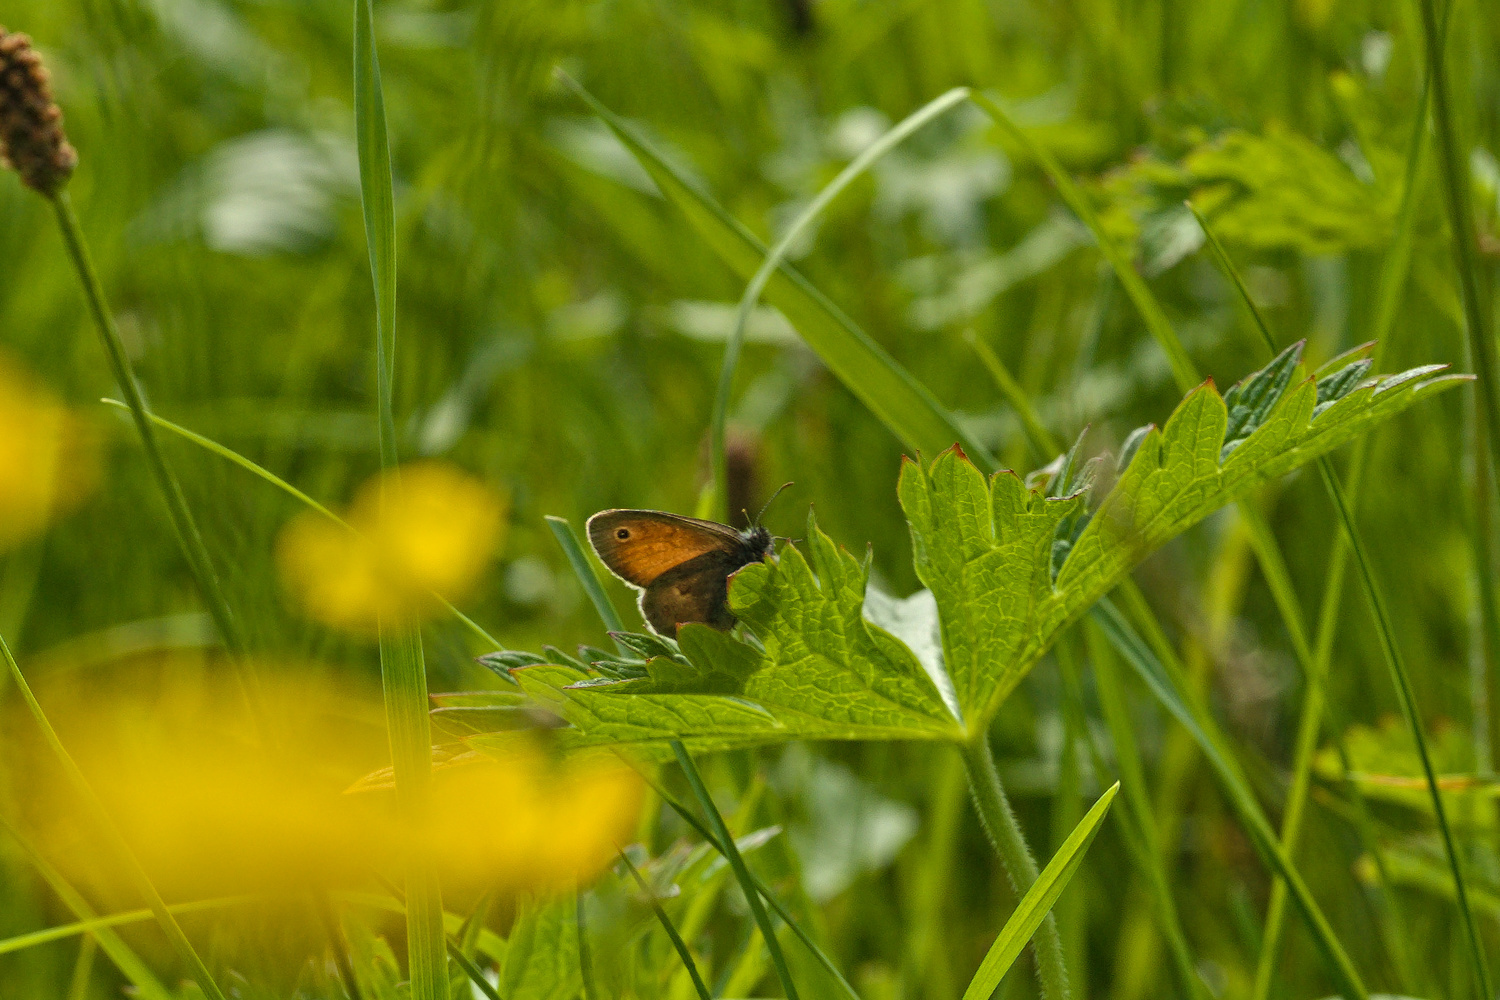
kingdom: Animalia
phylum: Arthropoda
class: Insecta
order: Lepidoptera
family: Nymphalidae
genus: Coenonympha
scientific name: Coenonympha pamphilus
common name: Small heath
